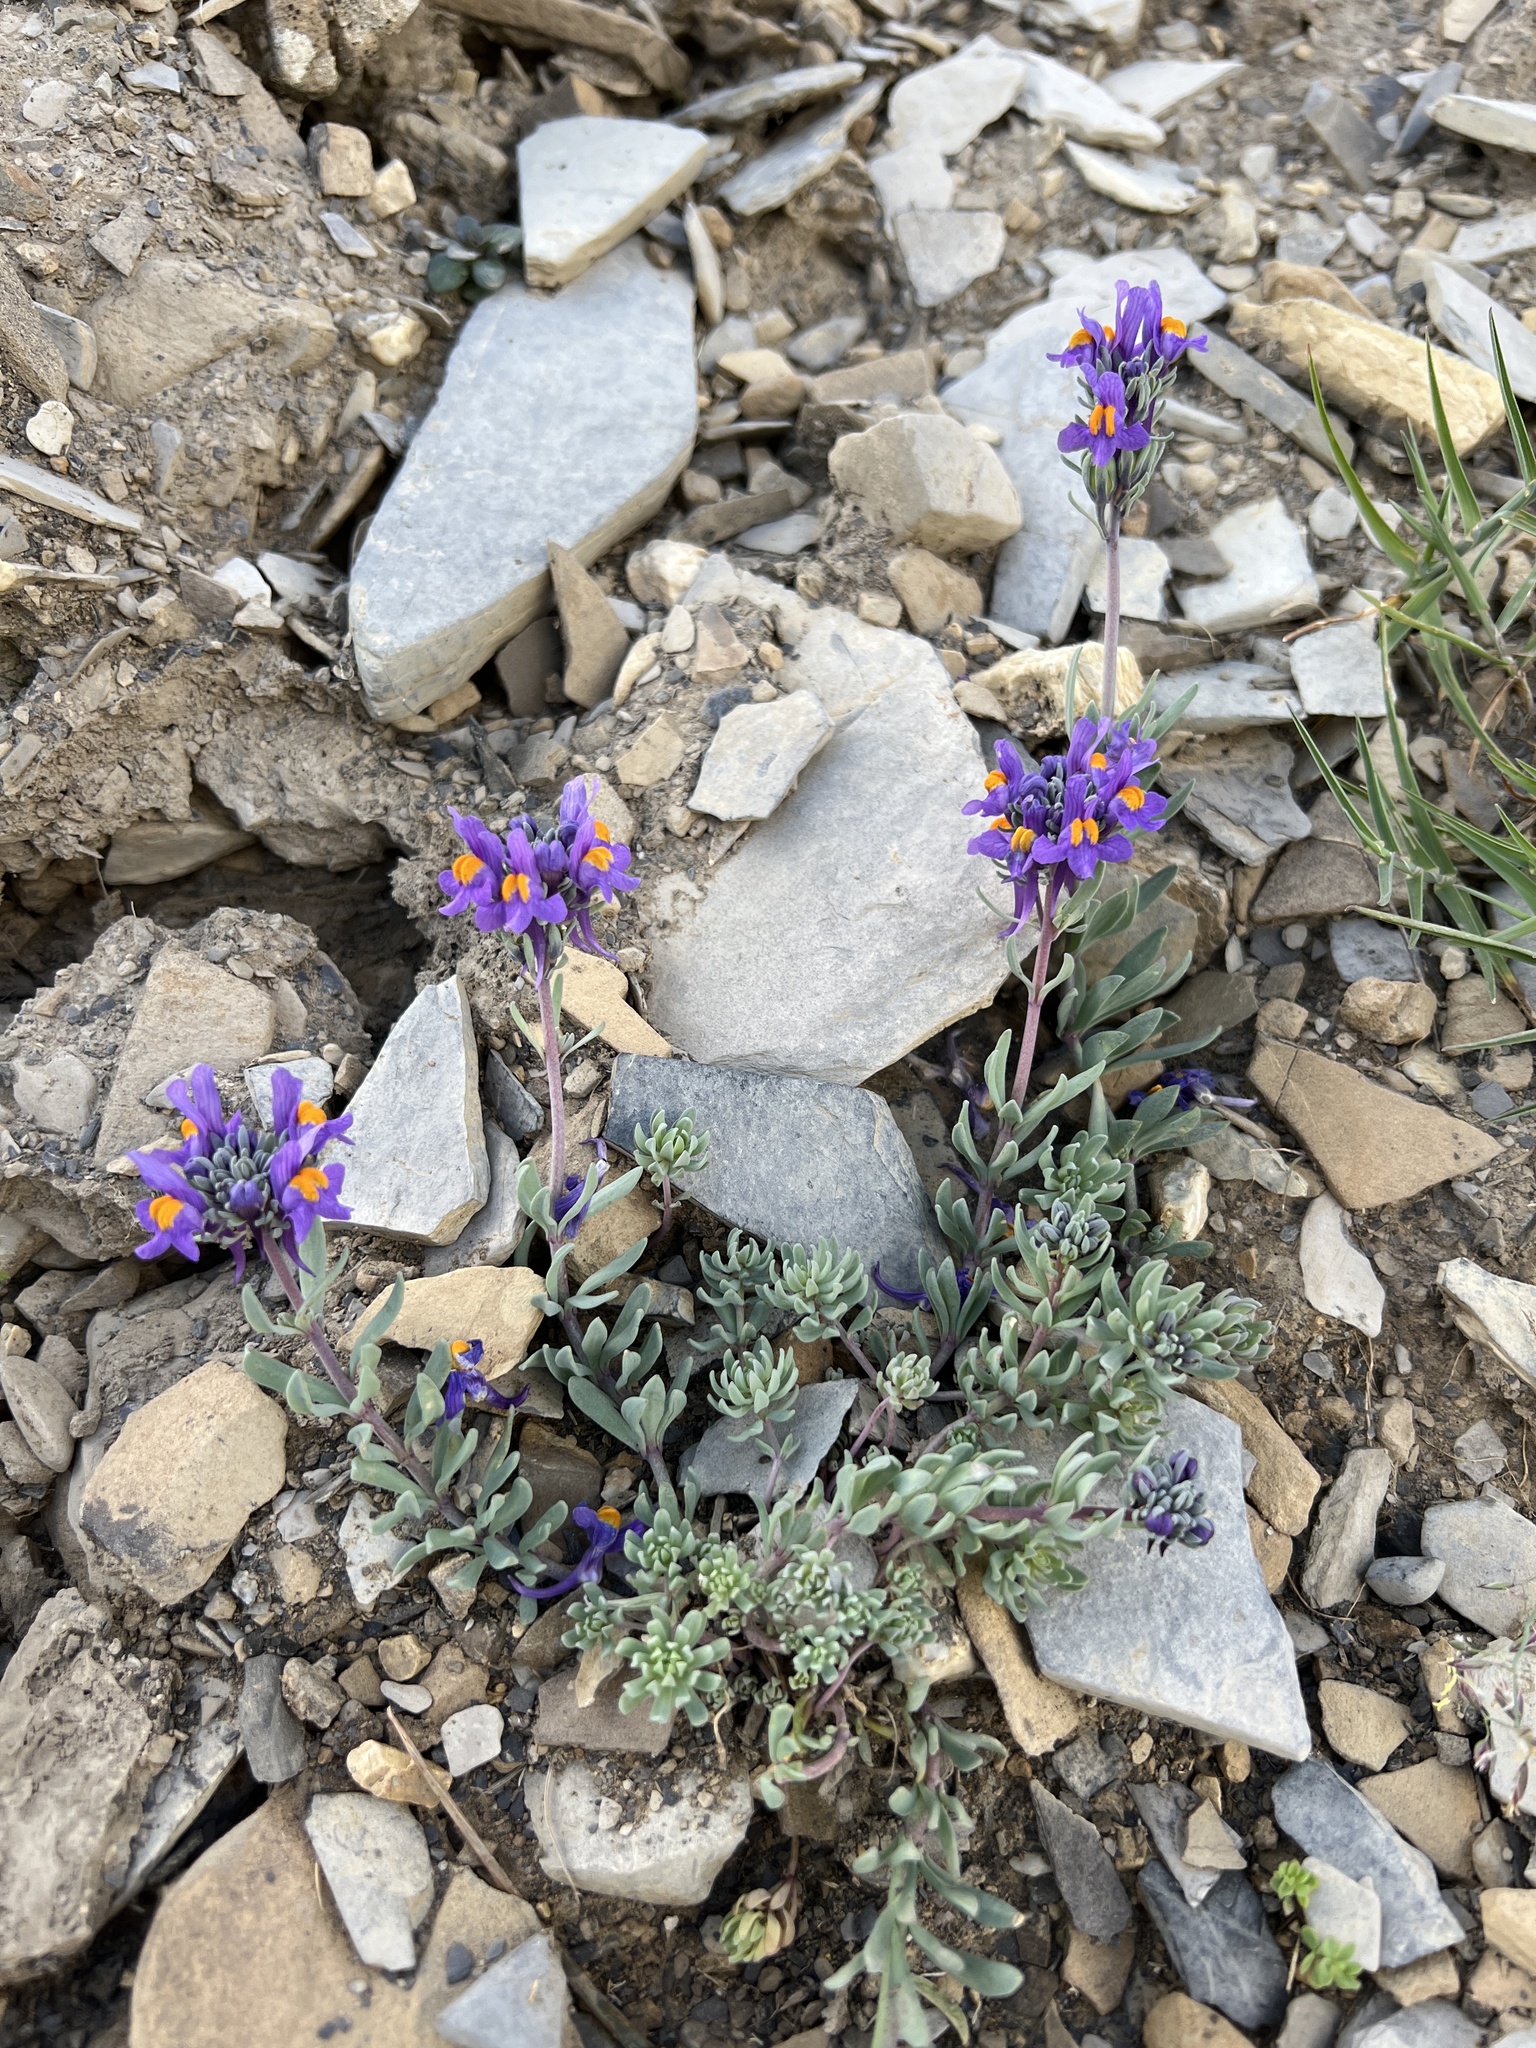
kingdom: Plantae
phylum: Tracheophyta
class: Magnoliopsida
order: Lamiales
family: Plantaginaceae
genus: Linaria
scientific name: Linaria alpina
